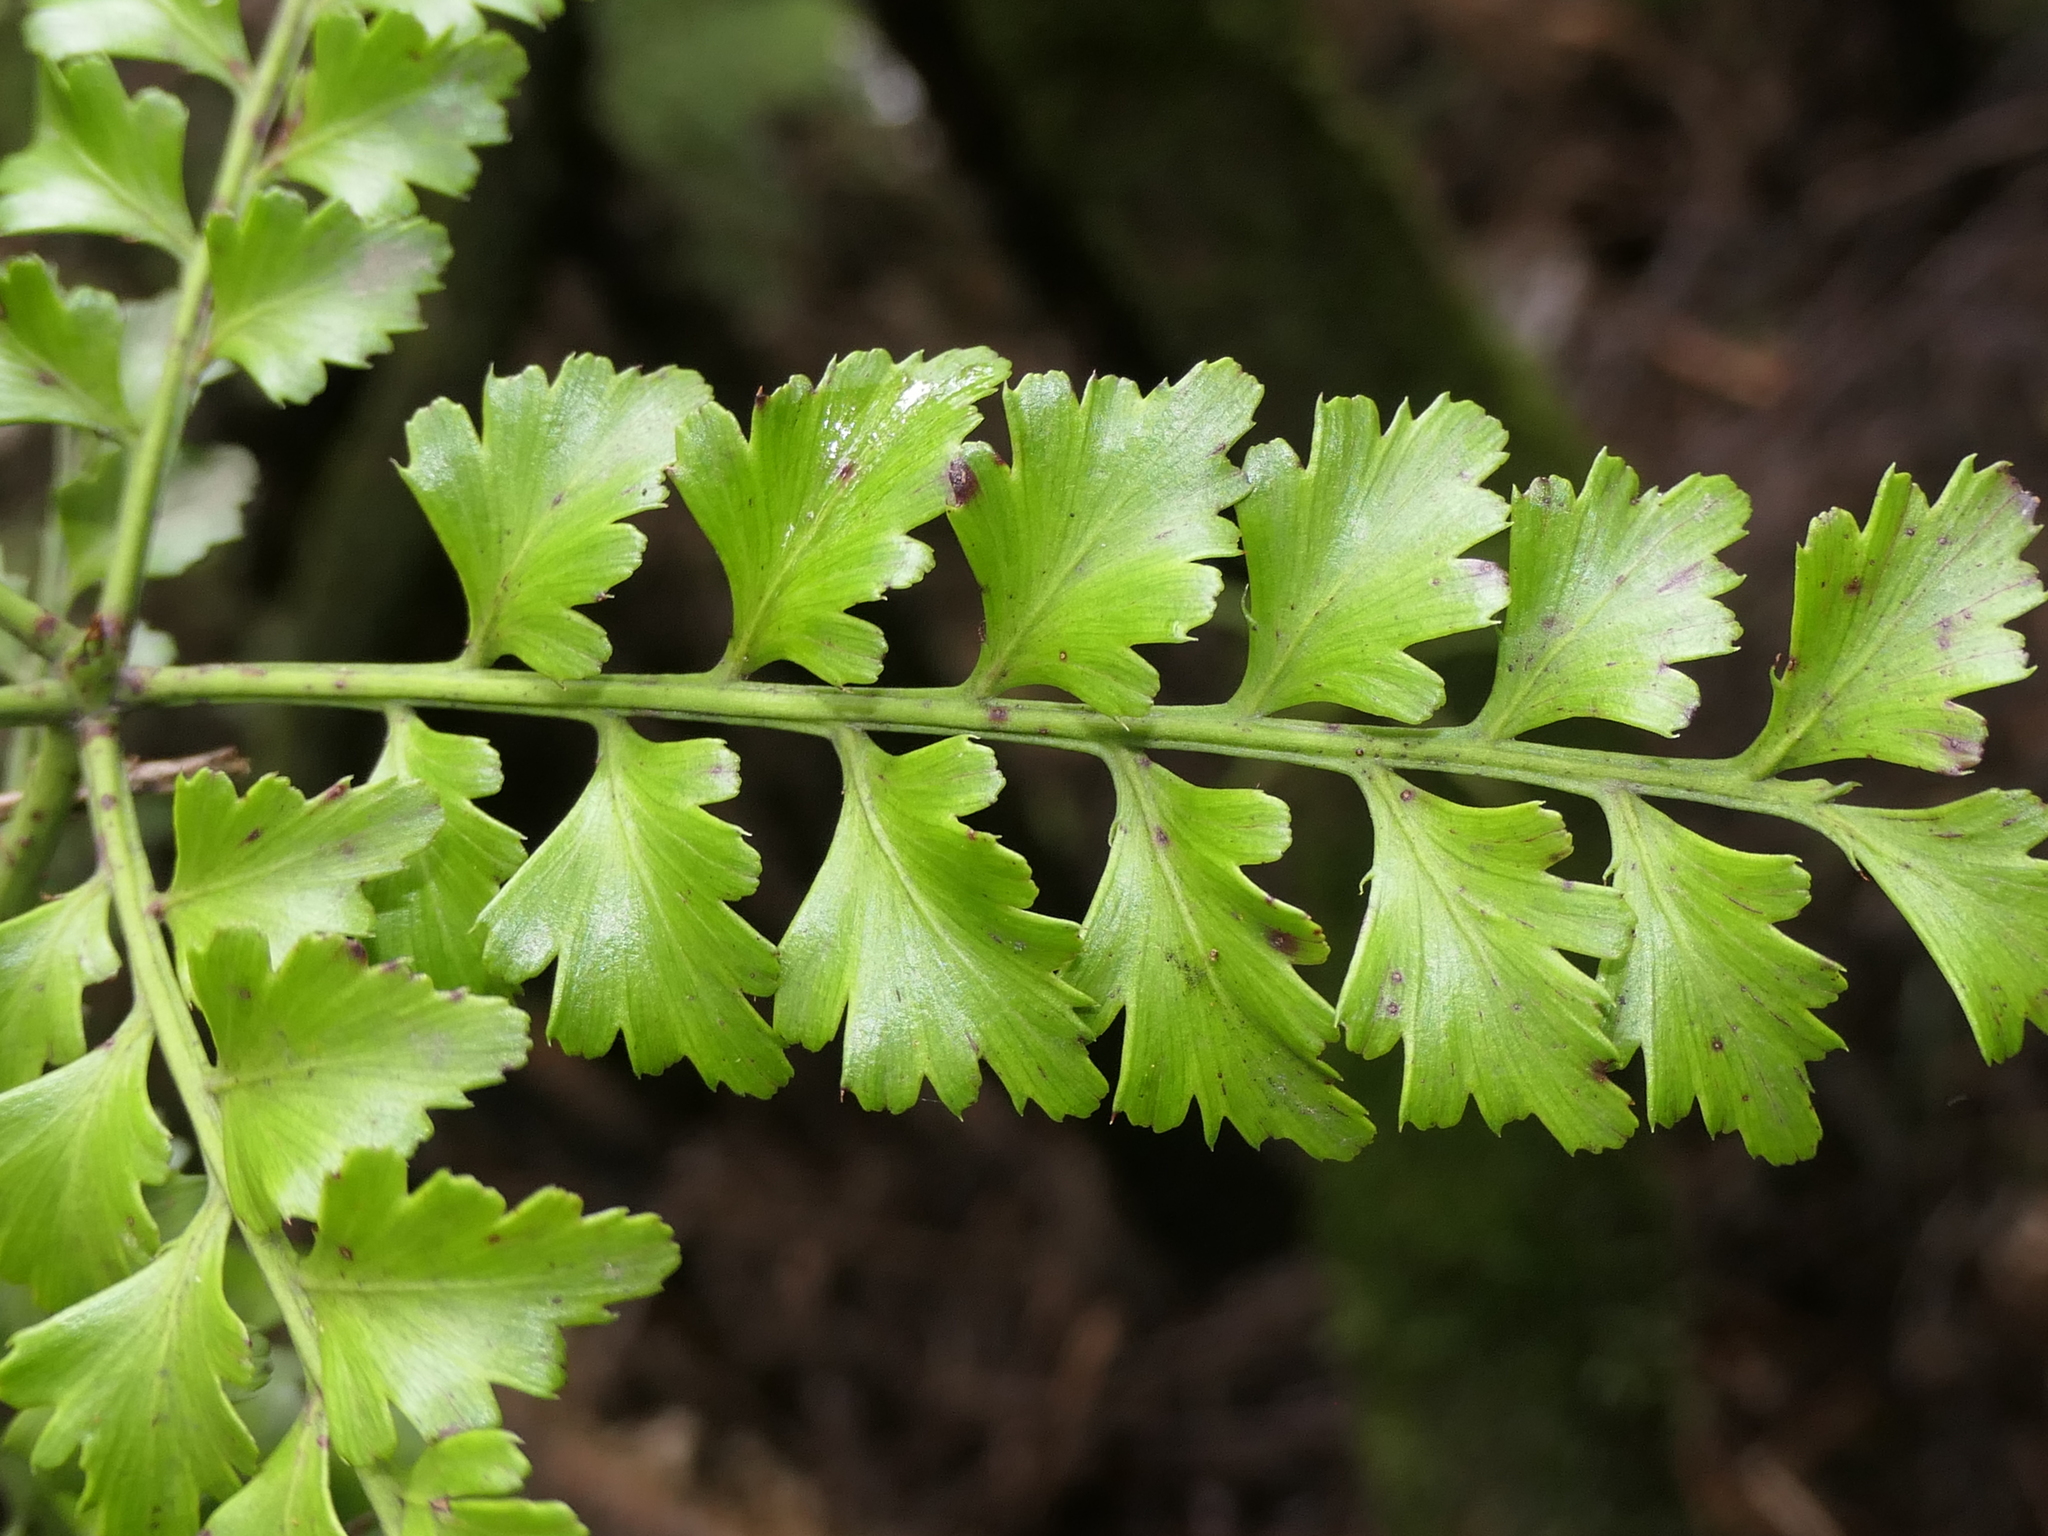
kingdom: Plantae
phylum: Tracheophyta
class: Pinopsida
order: Pinales
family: Phyllocladaceae
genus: Phyllocladus
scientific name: Phyllocladus trichomanoides
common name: Celery pine
